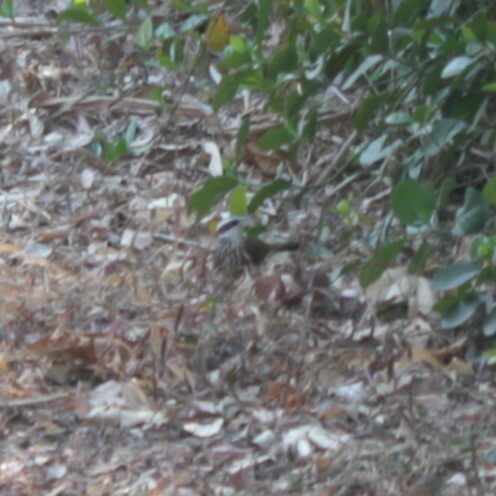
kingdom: Animalia
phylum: Chordata
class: Aves
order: Passeriformes
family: Timaliidae
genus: Pomatorhinus
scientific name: Pomatorhinus musicus
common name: Taiwan scimitar-babbler
